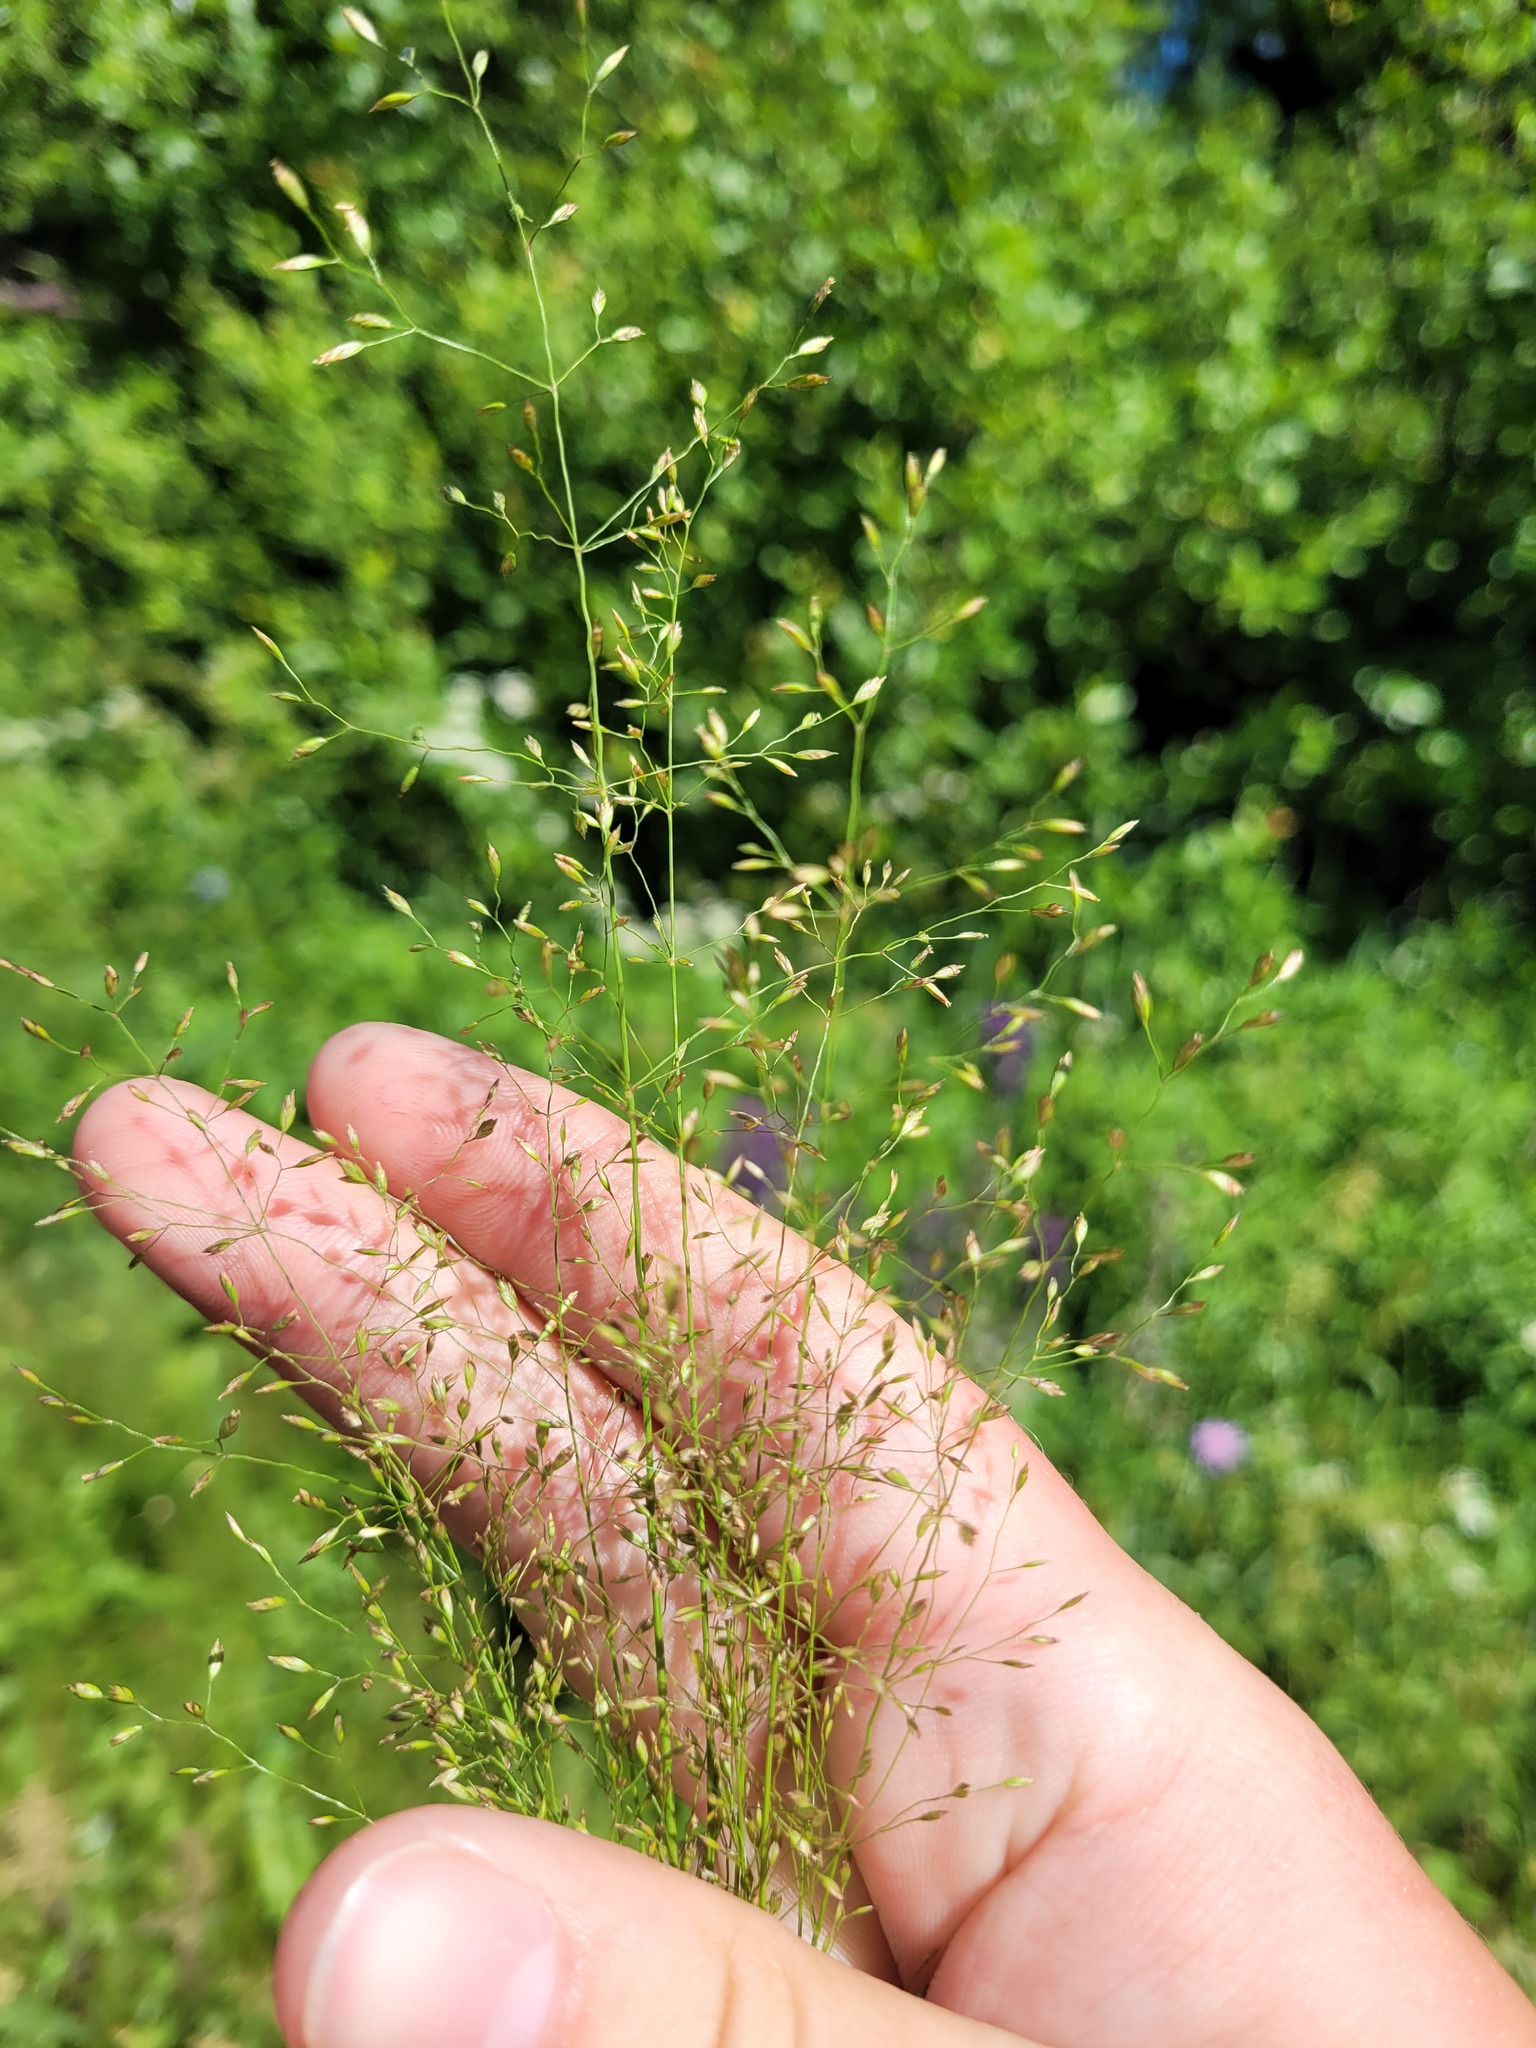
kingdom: Plantae
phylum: Tracheophyta
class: Liliopsida
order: Poales
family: Poaceae
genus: Poa
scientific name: Poa palustris
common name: Swamp meadow-grass
